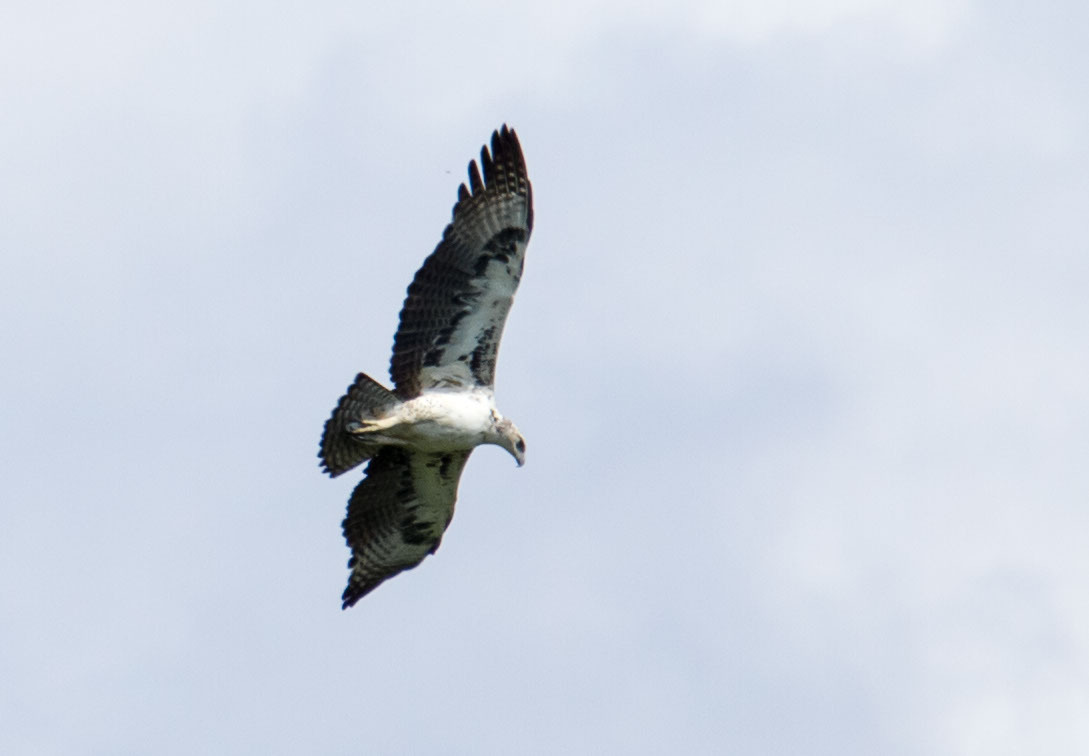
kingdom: Animalia
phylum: Chordata
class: Aves
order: Accipitriformes
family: Accipitridae
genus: Polemaetus
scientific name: Polemaetus bellicosus
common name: Martial eagle
